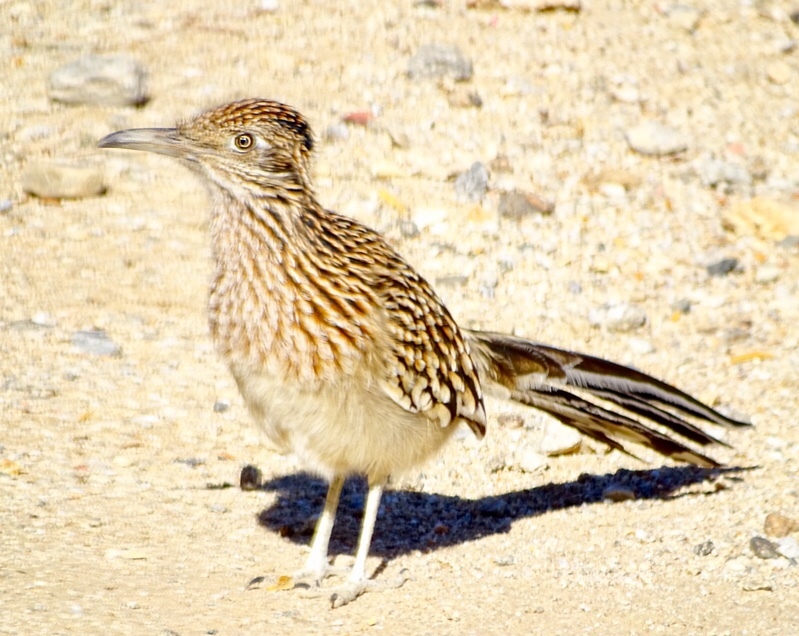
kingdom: Animalia
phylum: Chordata
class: Aves
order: Cuculiformes
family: Cuculidae
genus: Geococcyx
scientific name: Geococcyx californianus
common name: Greater roadrunner
